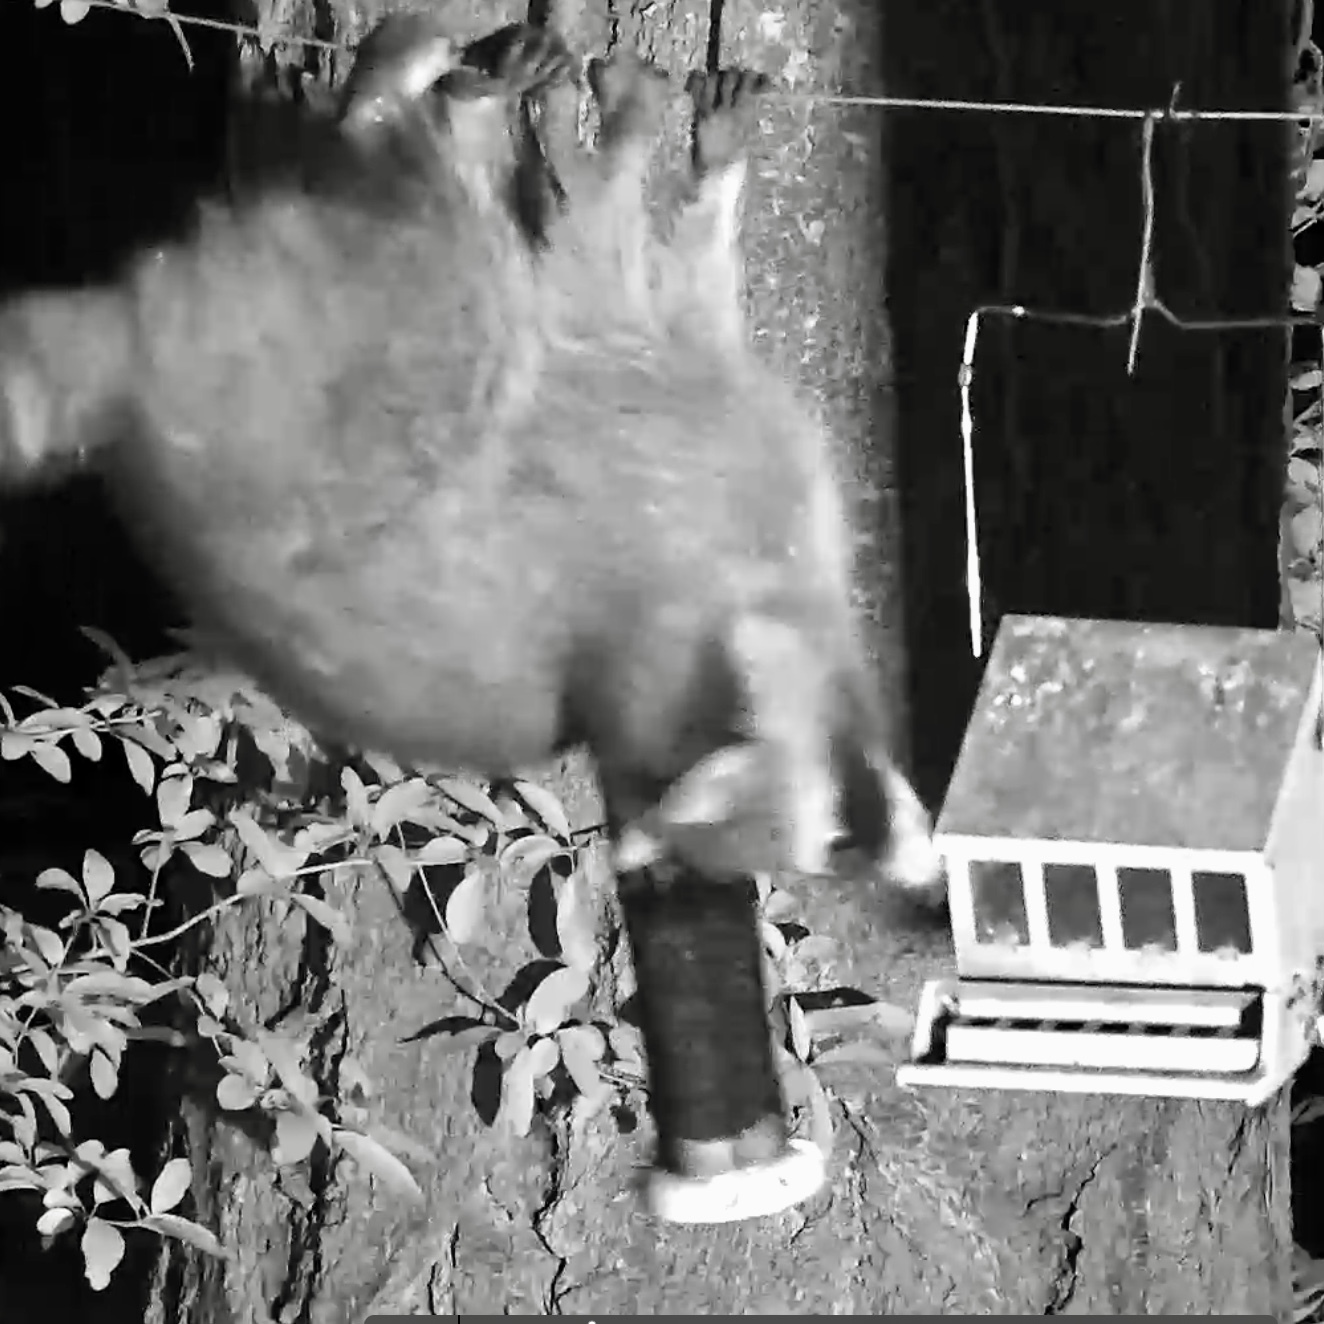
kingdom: Animalia
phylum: Chordata
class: Mammalia
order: Carnivora
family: Procyonidae
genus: Procyon
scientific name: Procyon lotor
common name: Raccoon
